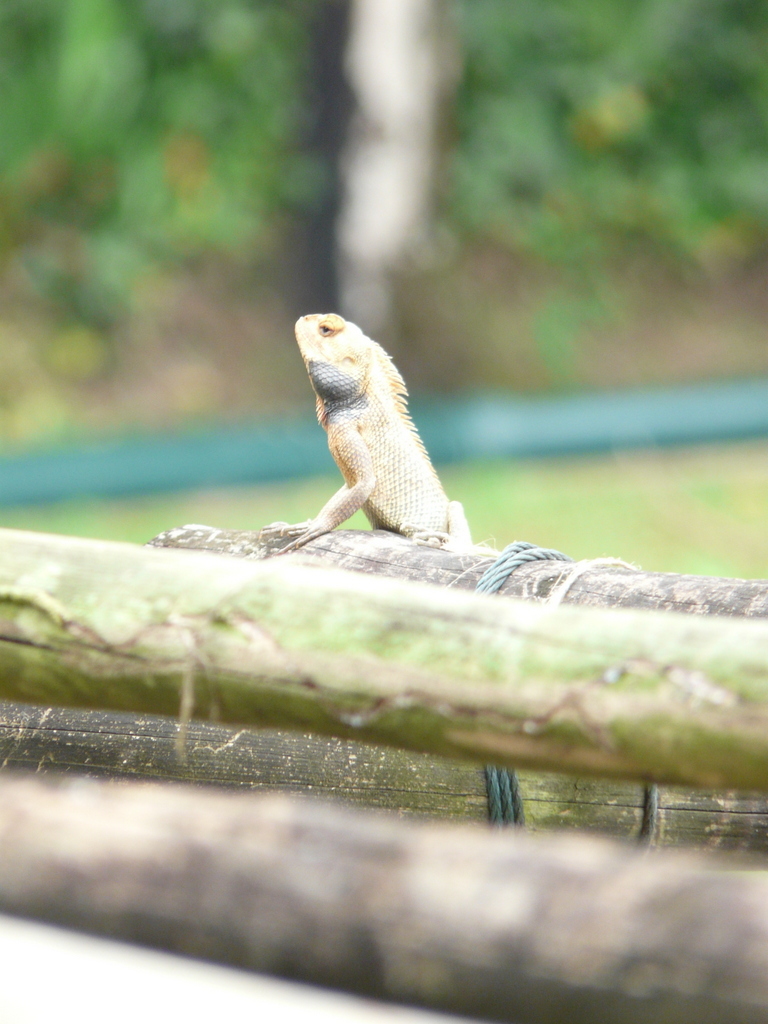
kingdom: Animalia
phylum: Chordata
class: Squamata
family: Agamidae
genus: Calotes
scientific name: Calotes versicolor
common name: Oriental garden lizard
